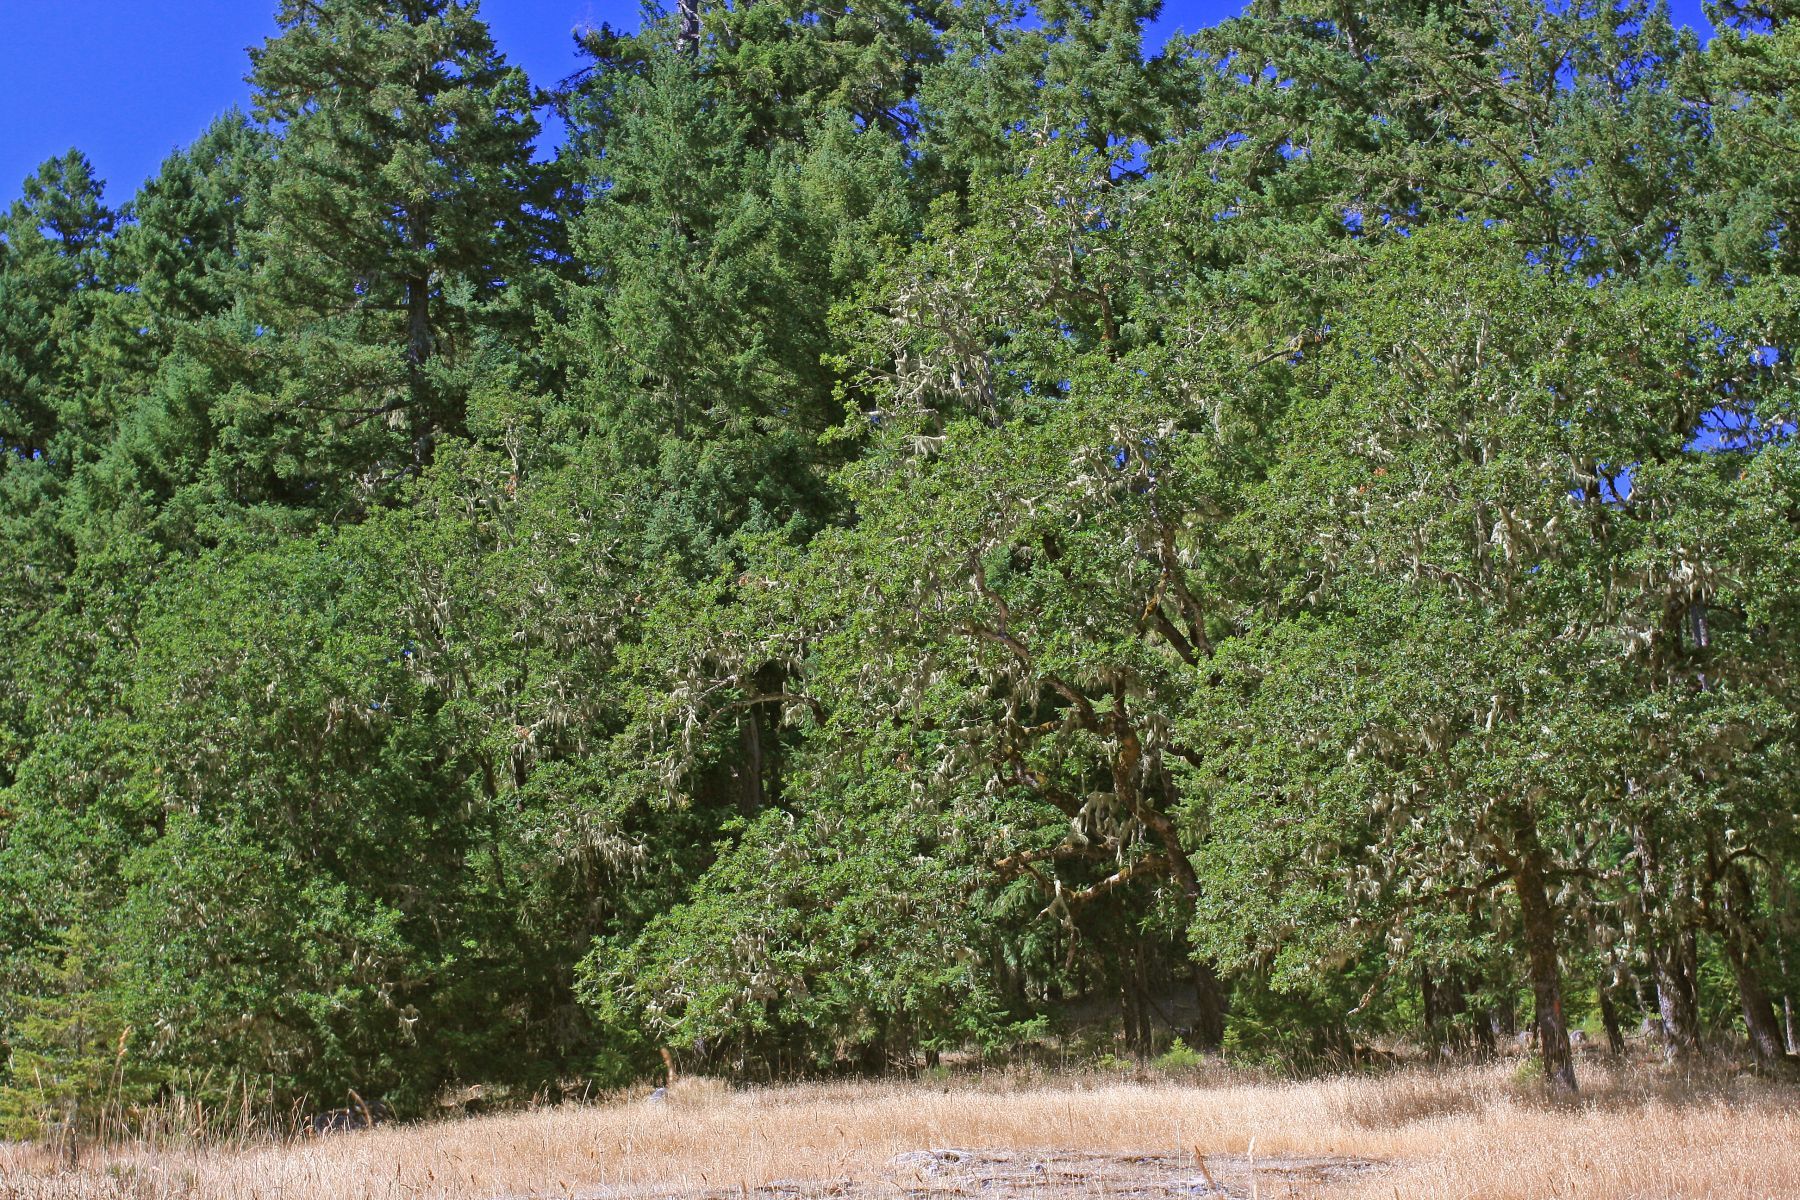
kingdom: Plantae
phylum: Tracheophyta
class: Magnoliopsida
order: Fagales
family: Fagaceae
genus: Quercus
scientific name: Quercus garryana
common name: Garry oak
